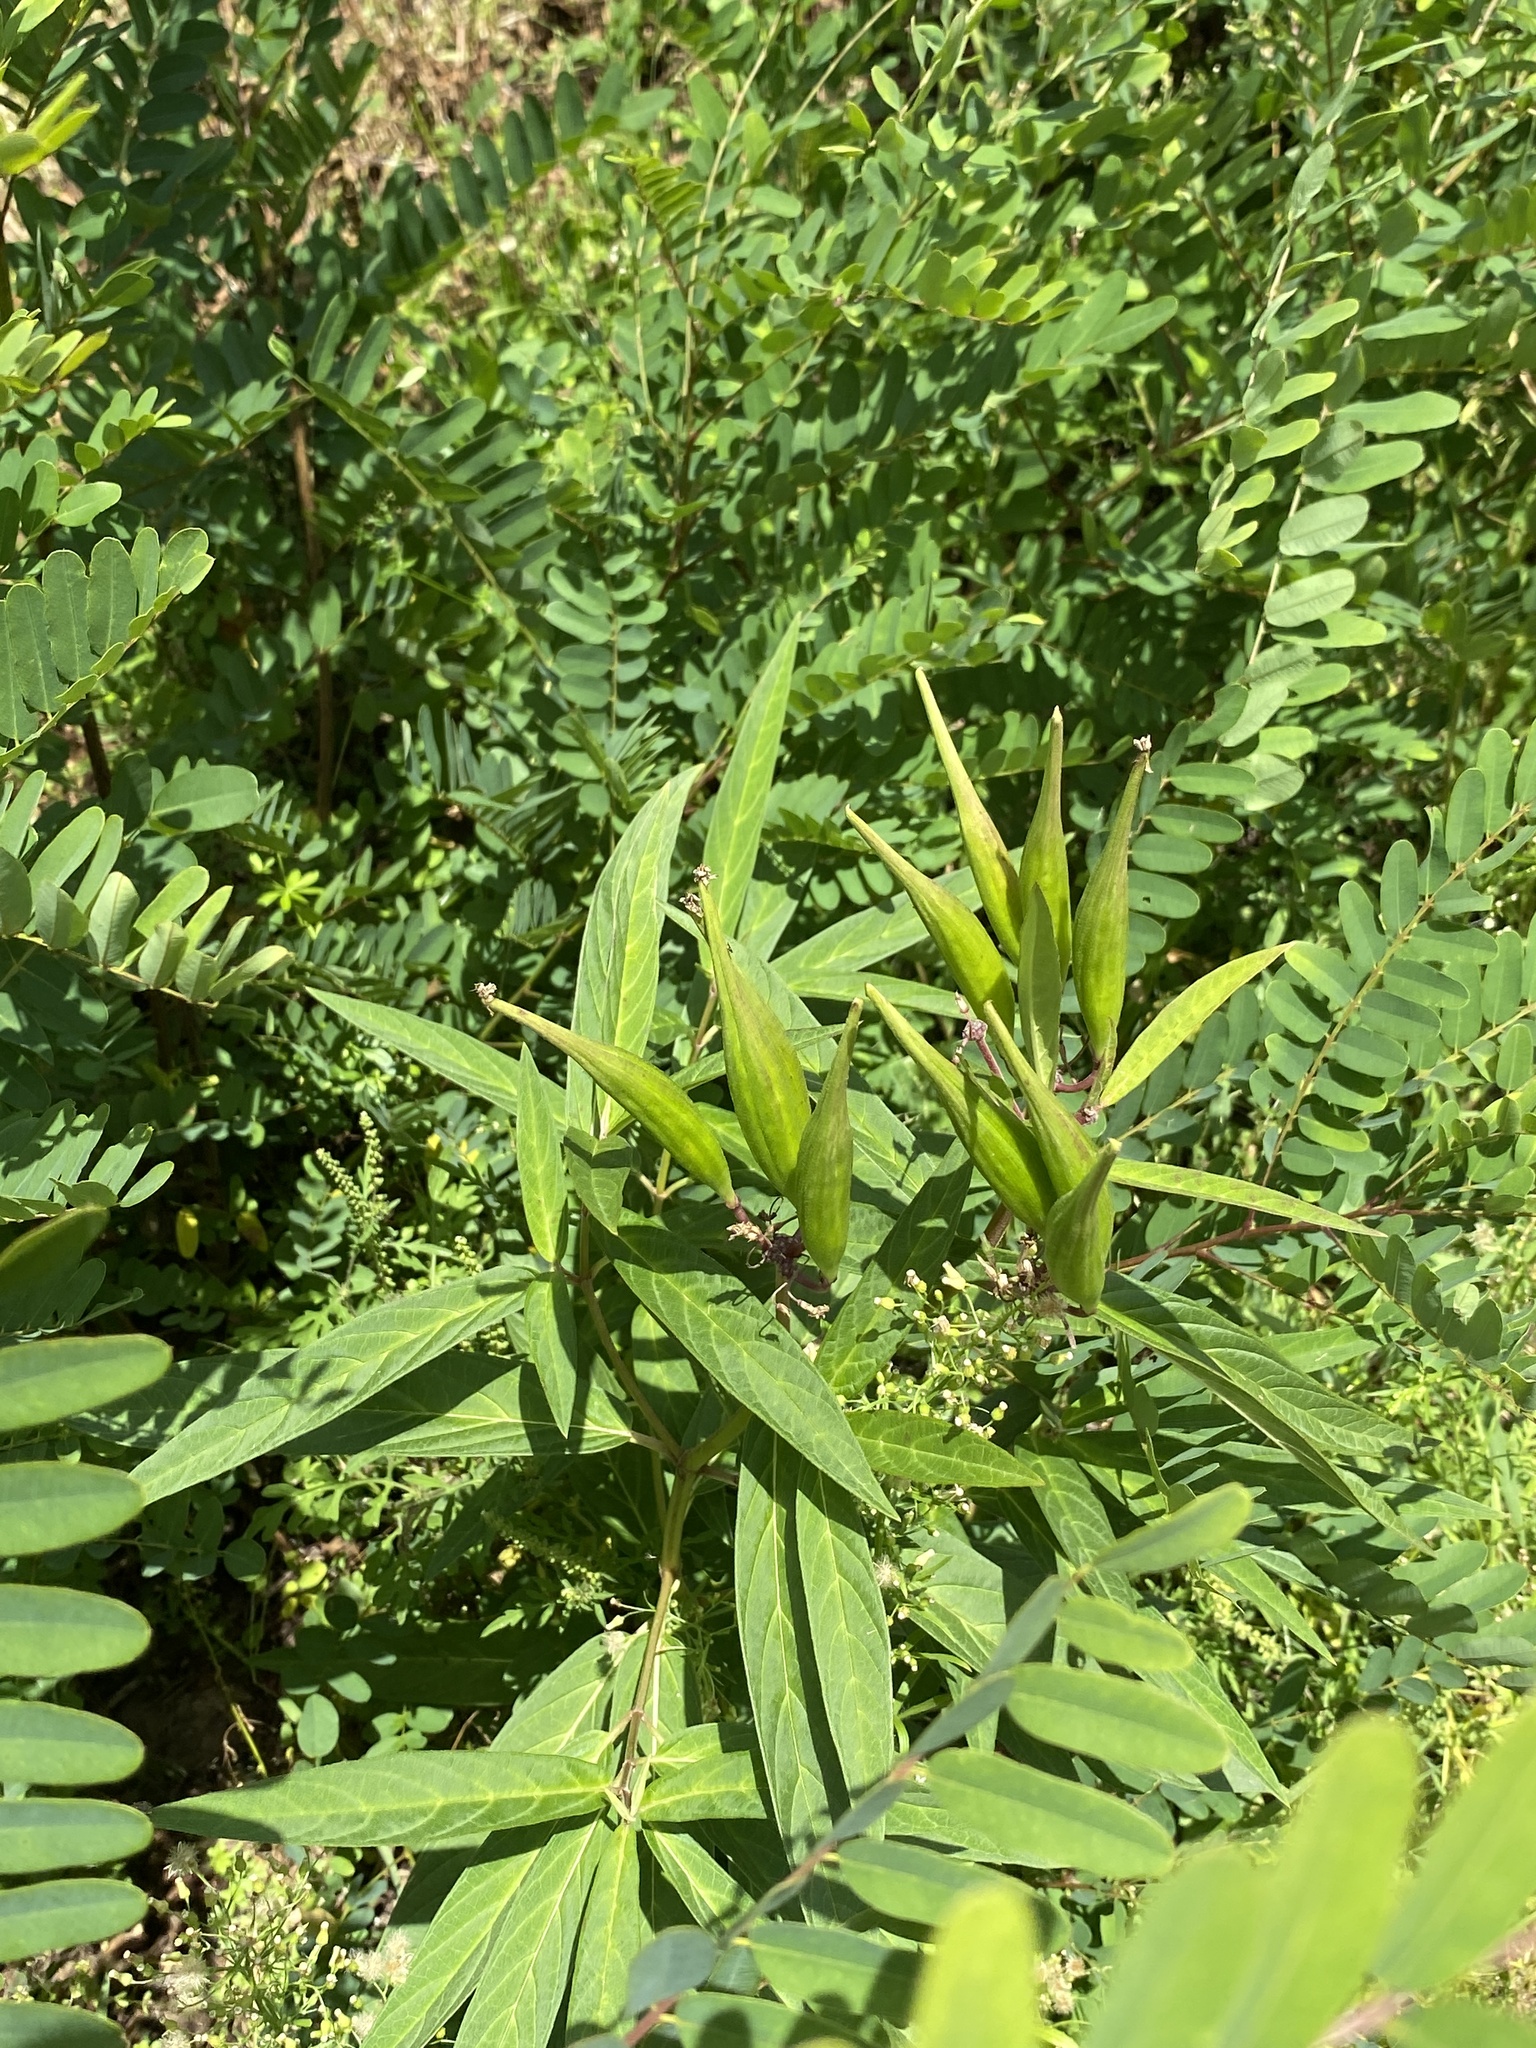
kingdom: Plantae
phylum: Tracheophyta
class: Magnoliopsida
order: Gentianales
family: Apocynaceae
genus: Asclepias
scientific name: Asclepias incarnata
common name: Swamp milkweed
